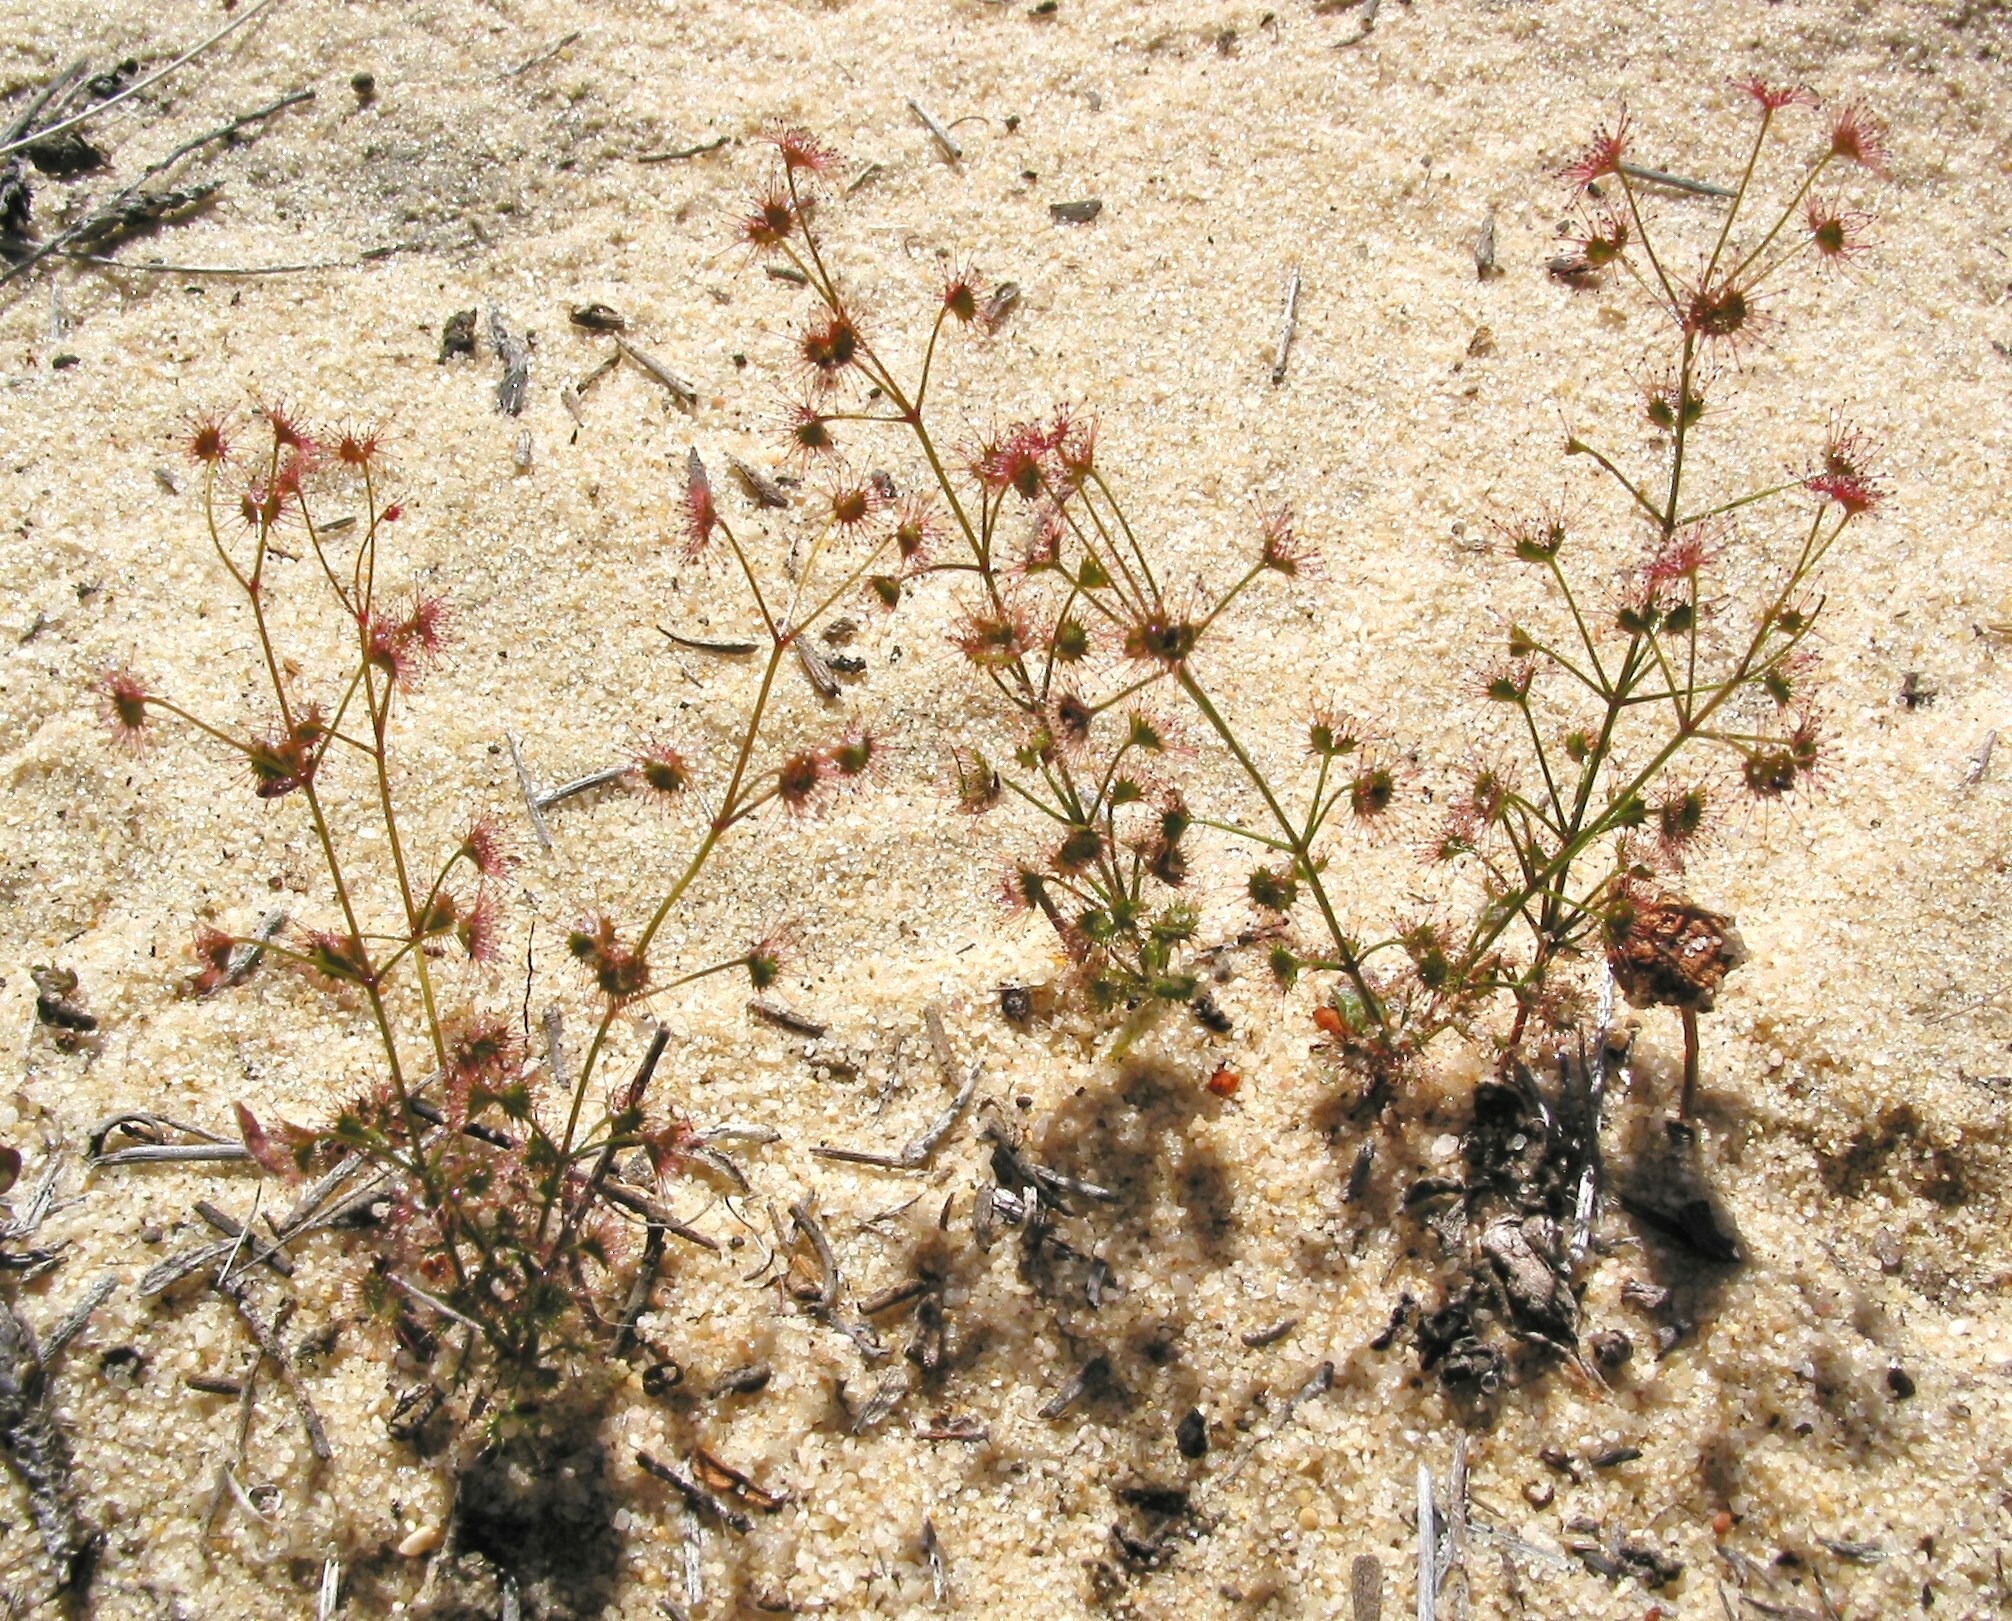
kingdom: Plantae
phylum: Tracheophyta
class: Magnoliopsida
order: Caryophyllales
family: Droseraceae
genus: Drosera
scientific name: Drosera stolonifera
